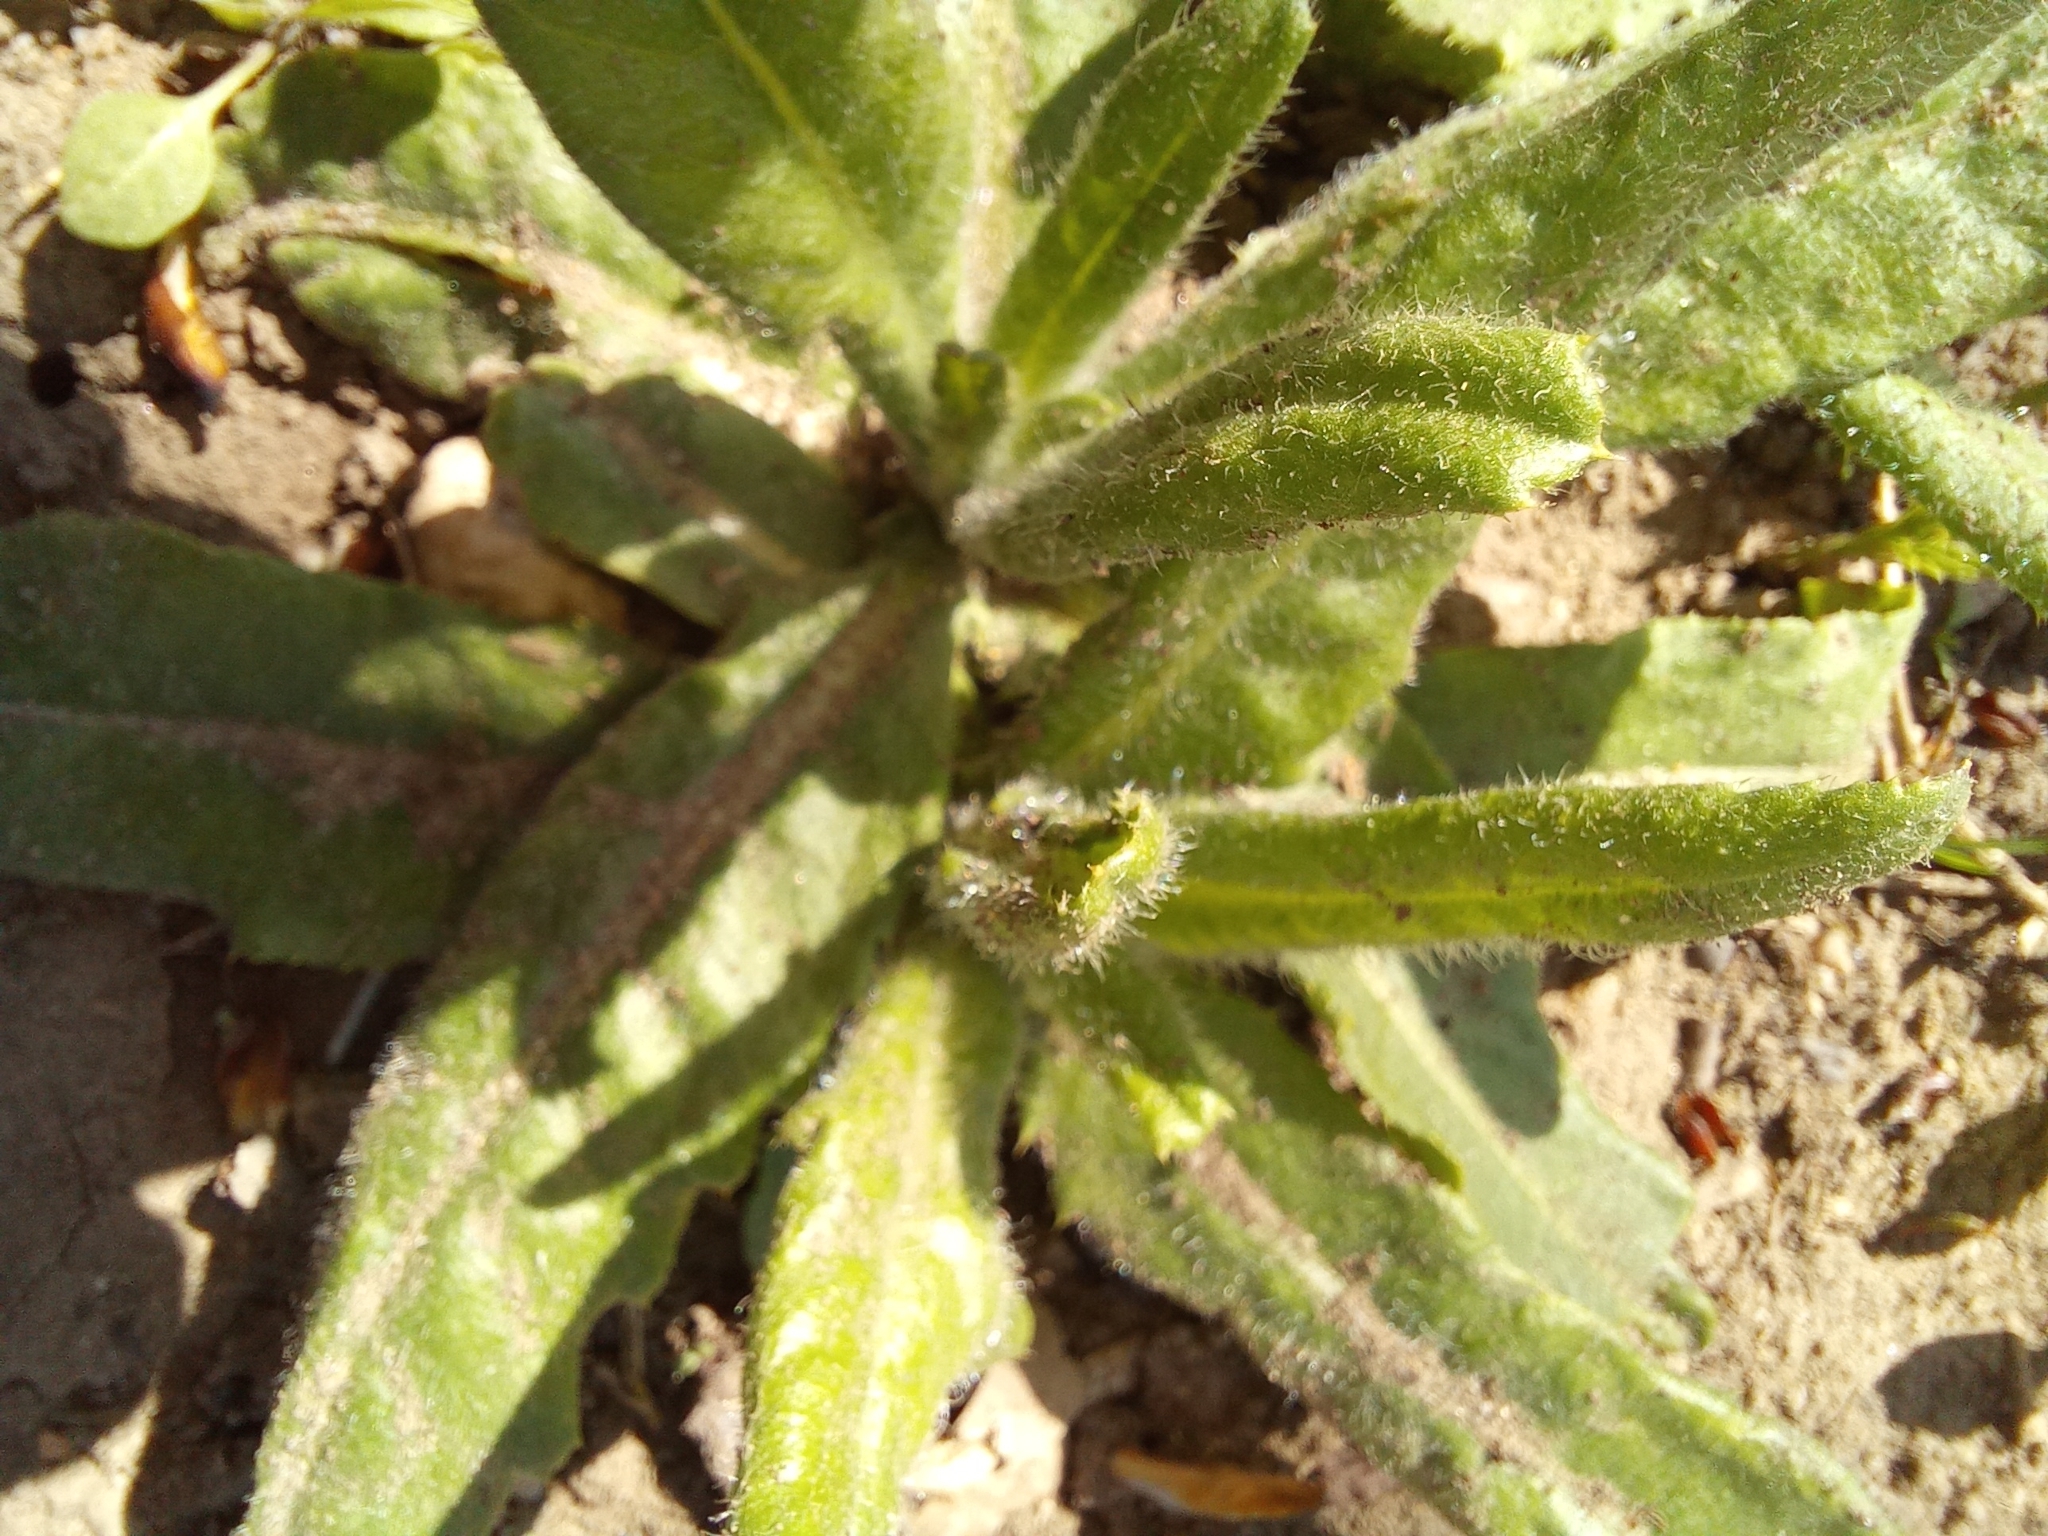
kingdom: Plantae
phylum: Tracheophyta
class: Magnoliopsida
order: Asterales
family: Asteraceae
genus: Cirsium
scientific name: Cirsium arvense
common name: Creeping thistle
